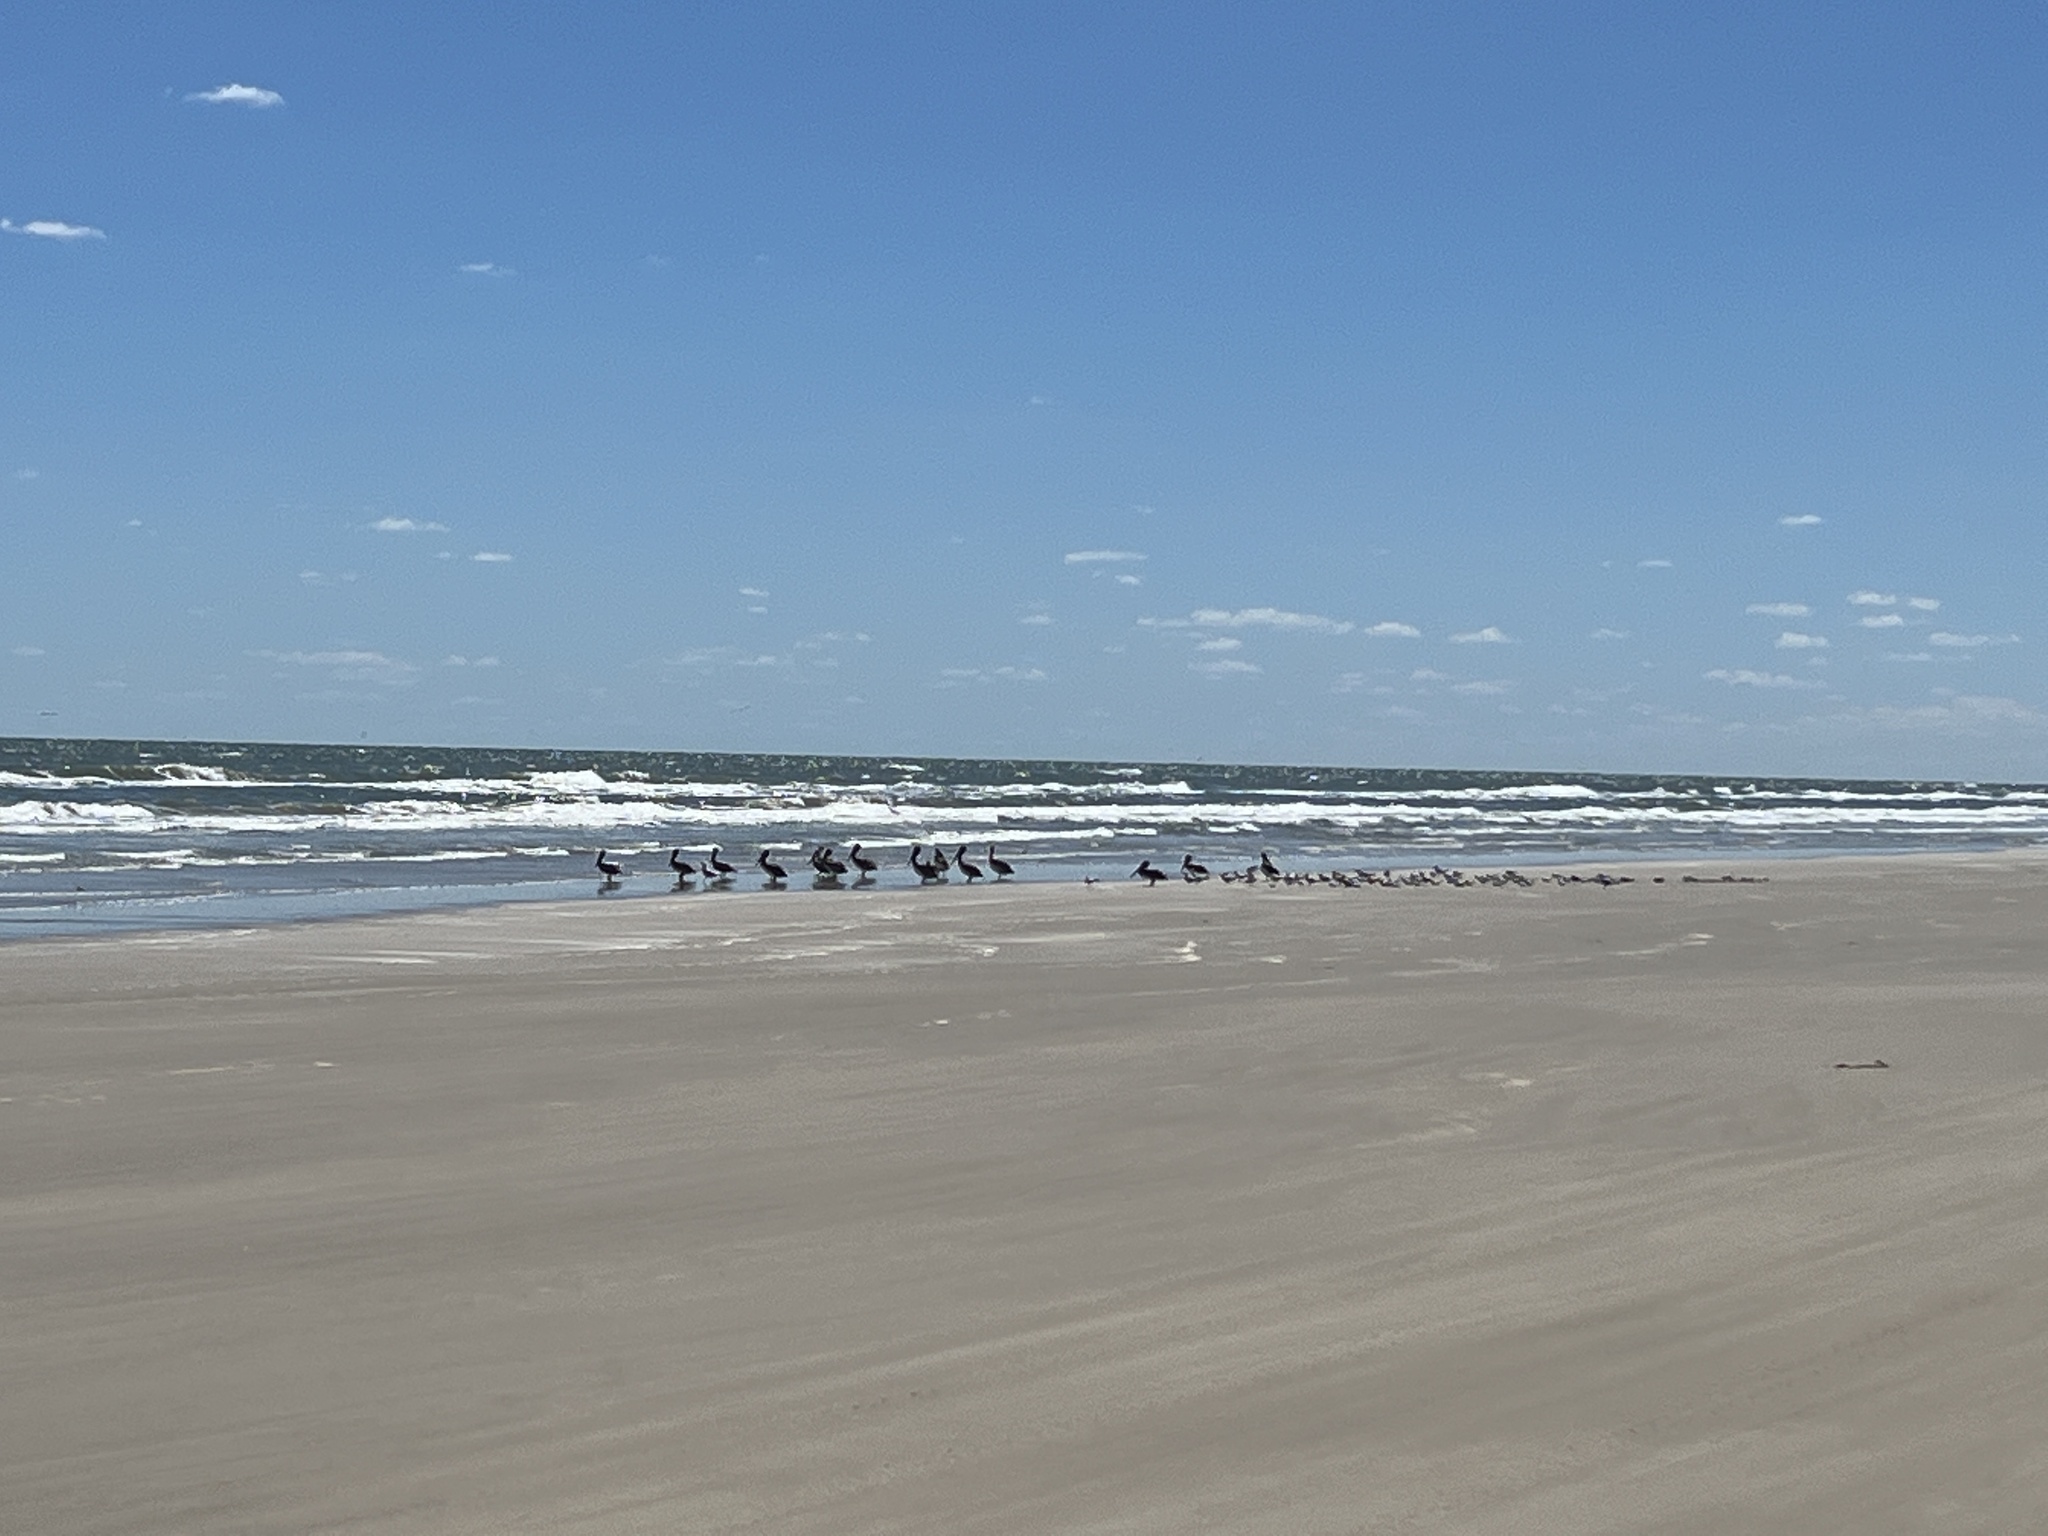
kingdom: Animalia
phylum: Chordata
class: Aves
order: Pelecaniformes
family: Pelecanidae
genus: Pelecanus
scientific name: Pelecanus occidentalis
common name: Brown pelican
